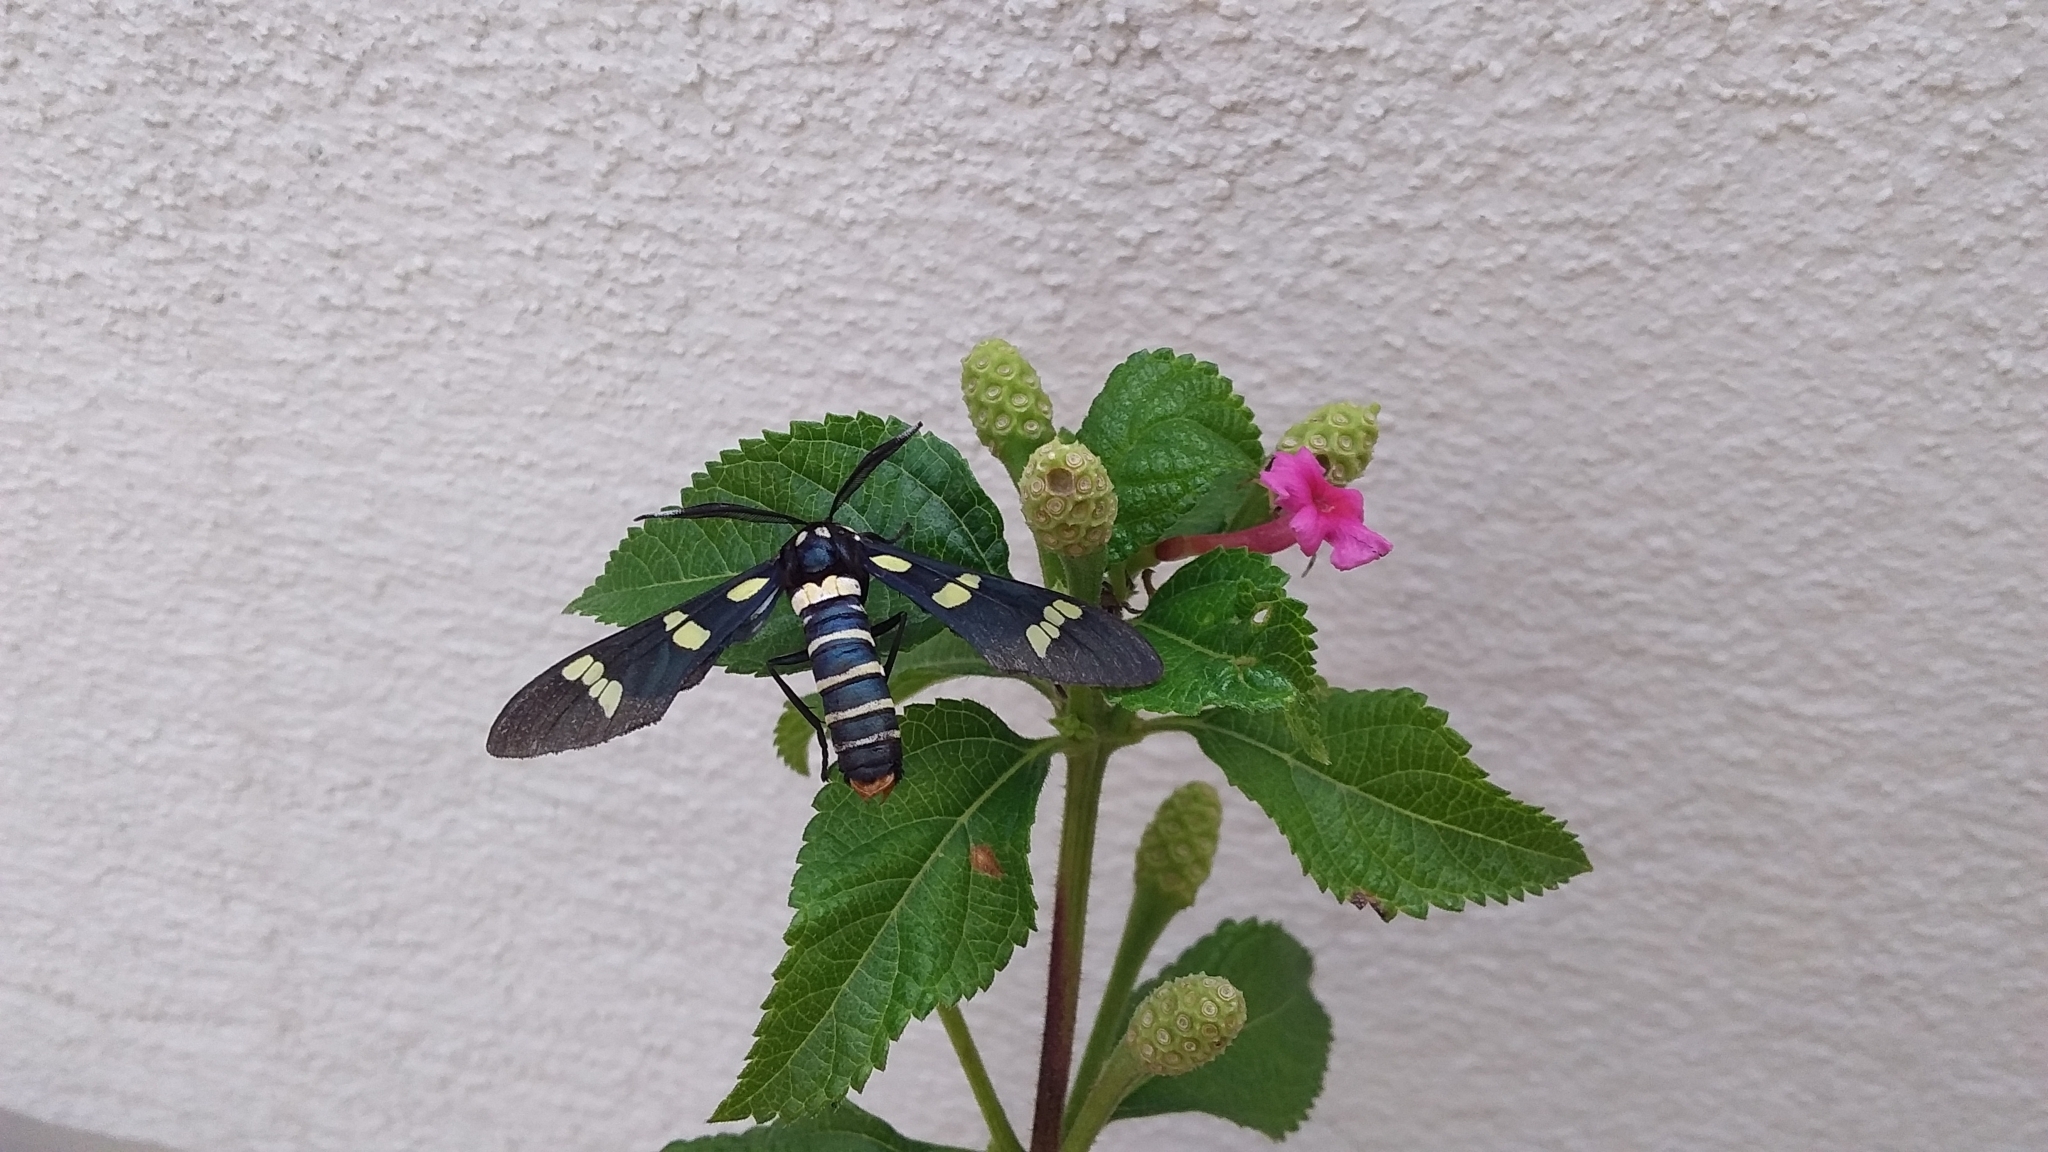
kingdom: Animalia
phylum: Arthropoda
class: Insecta
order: Lepidoptera
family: Erebidae
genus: Syntomeida
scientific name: Syntomeida melanthus
